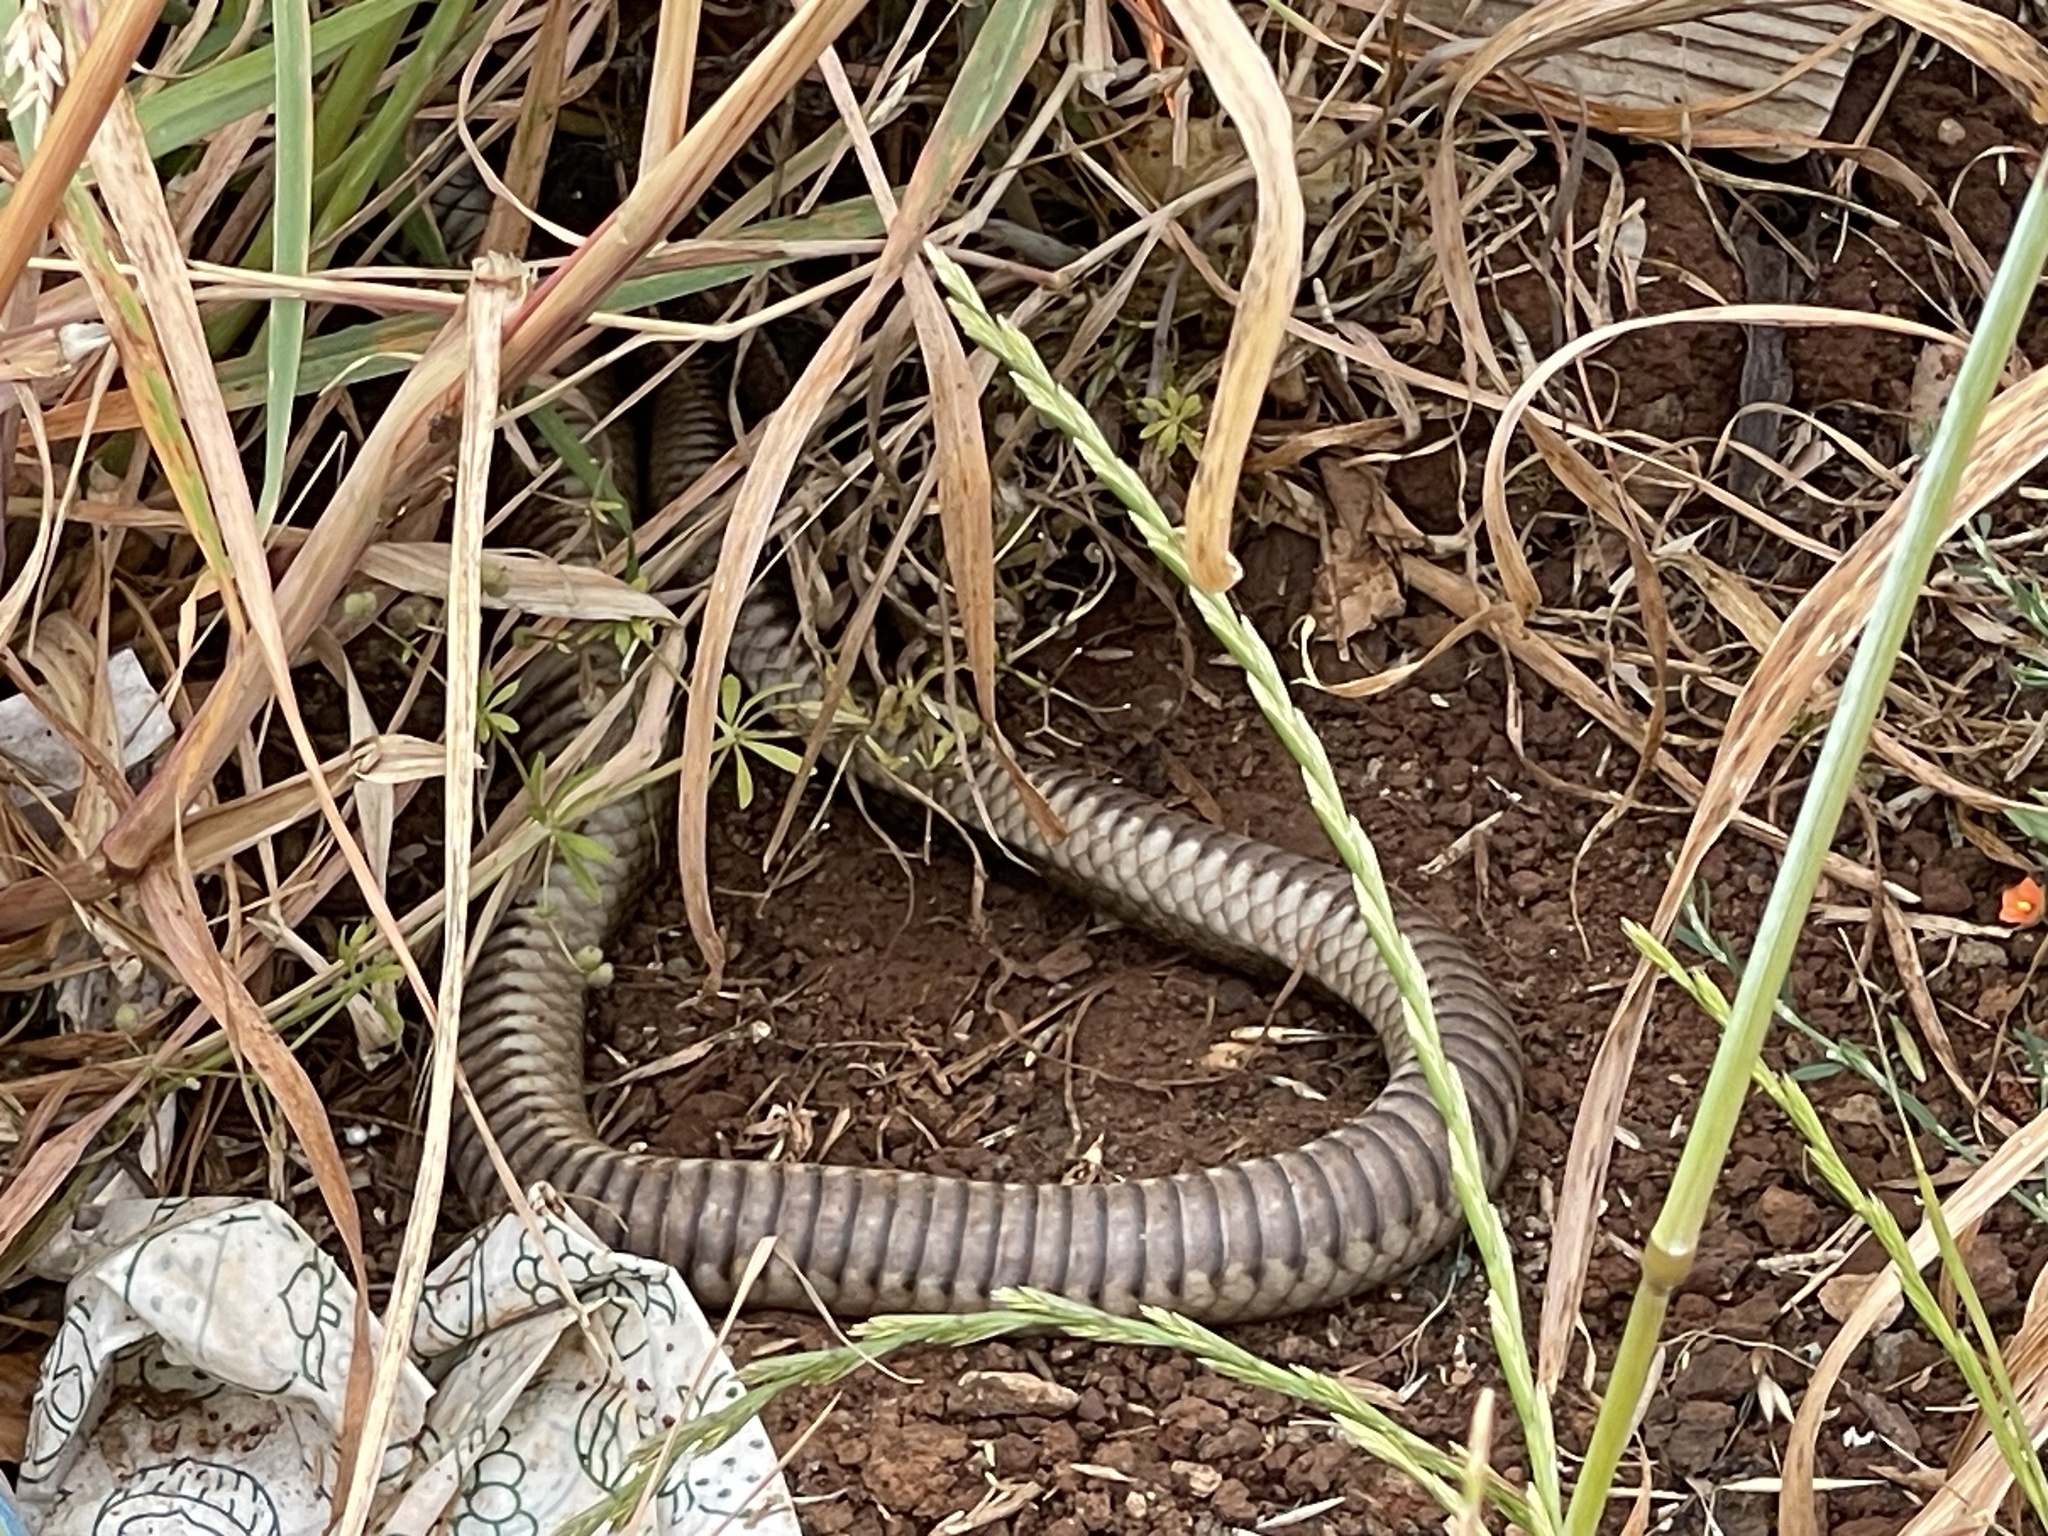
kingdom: Animalia
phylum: Chordata
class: Squamata
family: Elapidae
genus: Pseudonaja
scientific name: Pseudonaja textilis
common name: Eastern brown snake
